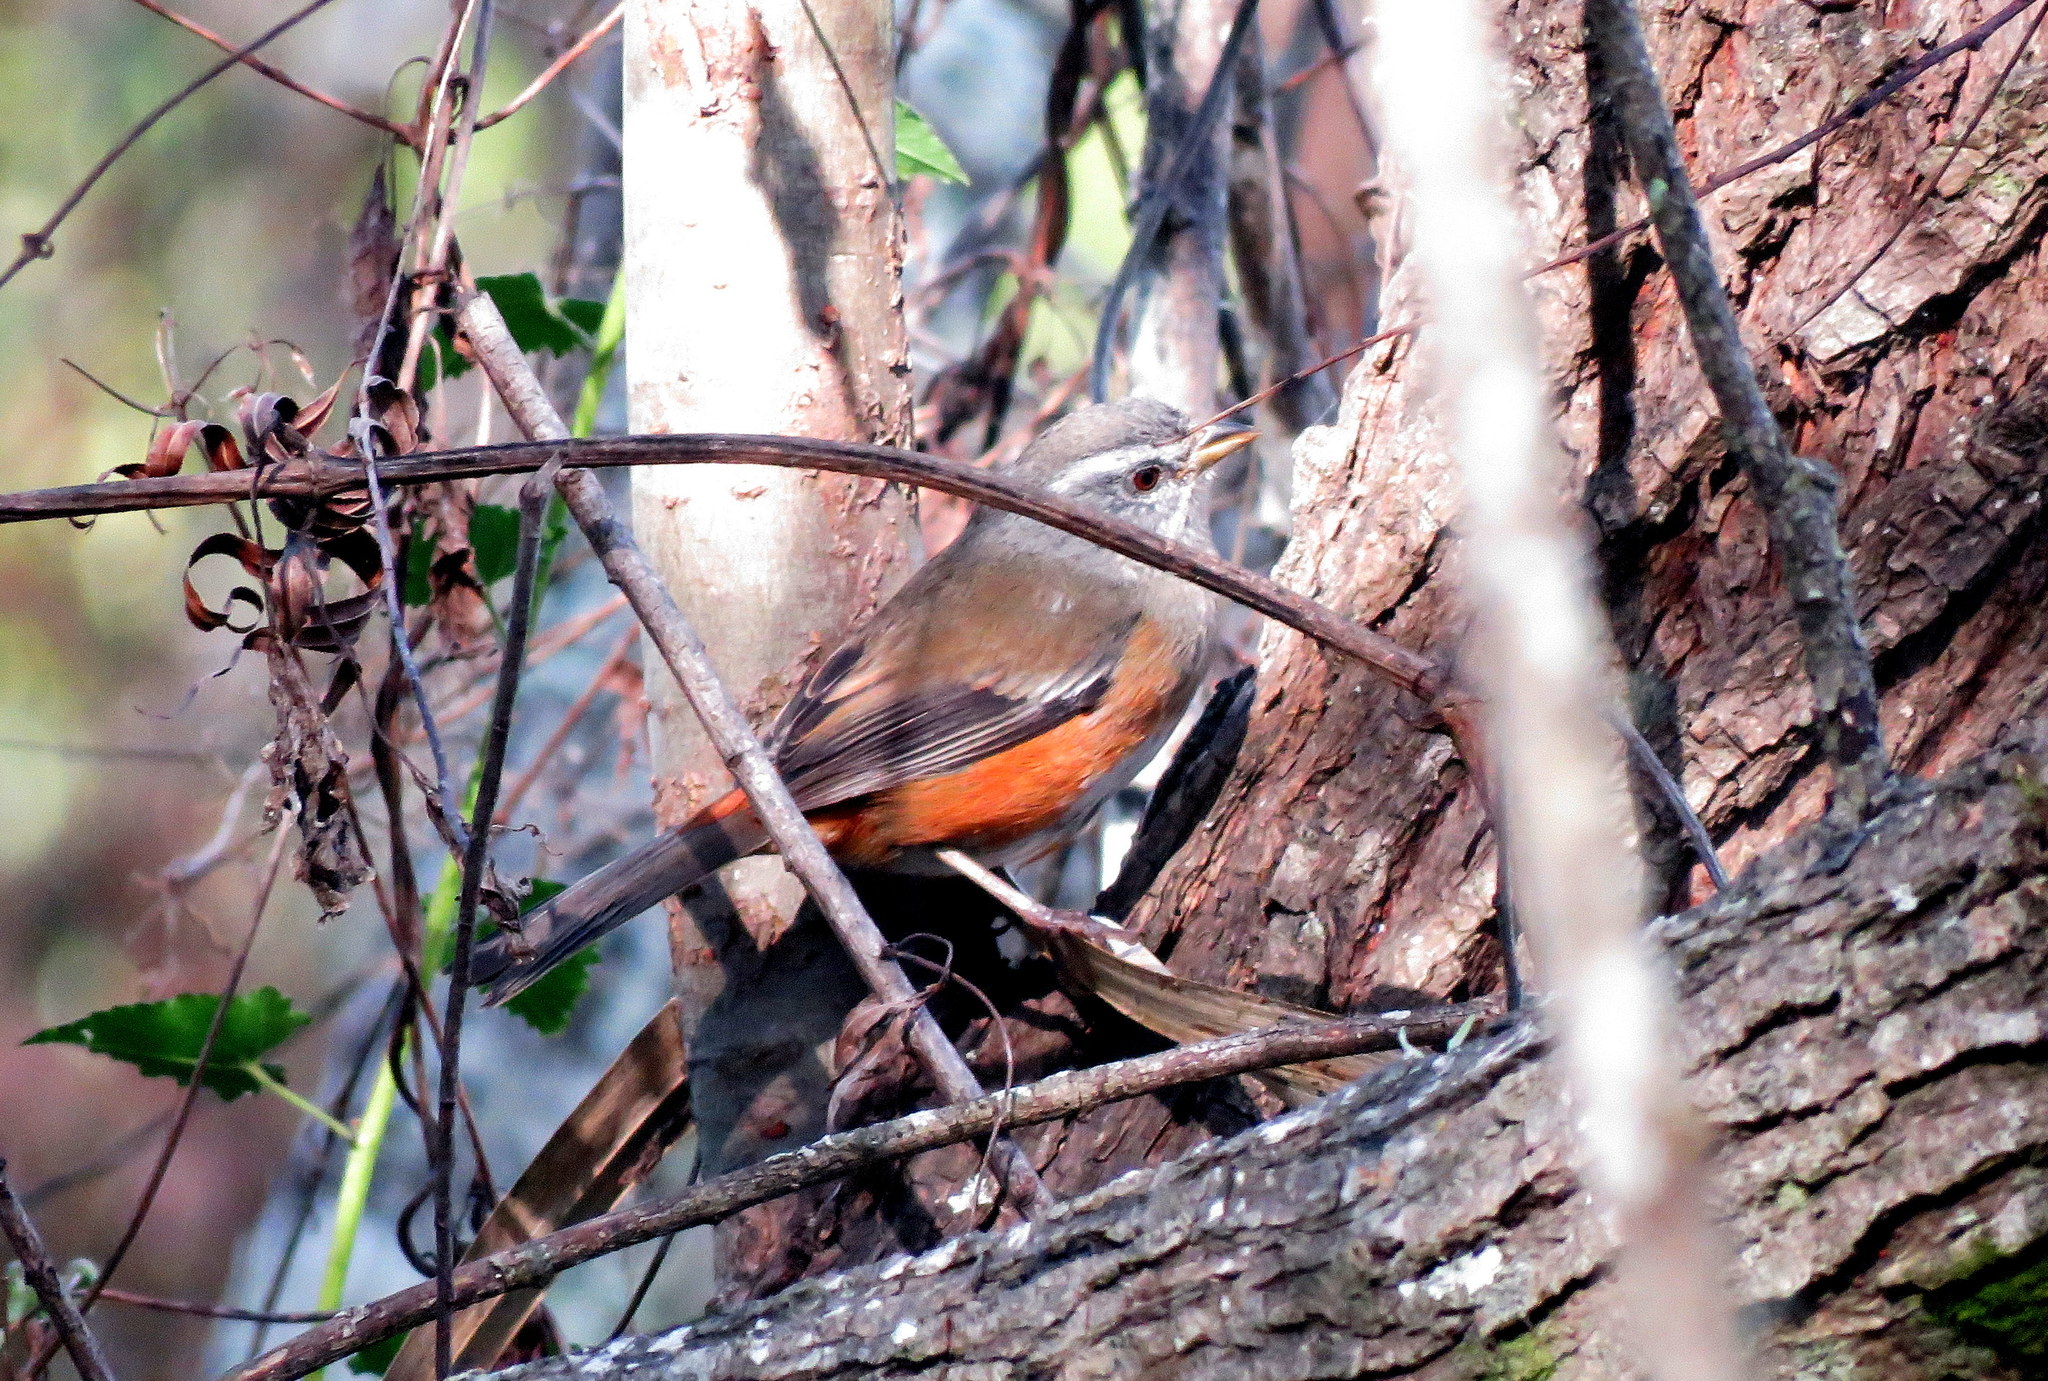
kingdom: Animalia
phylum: Chordata
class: Aves
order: Passeriformes
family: Thraupidae
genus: Microspingus
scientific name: Microspingus cabanisi
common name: Gray-throated warbling-finch
